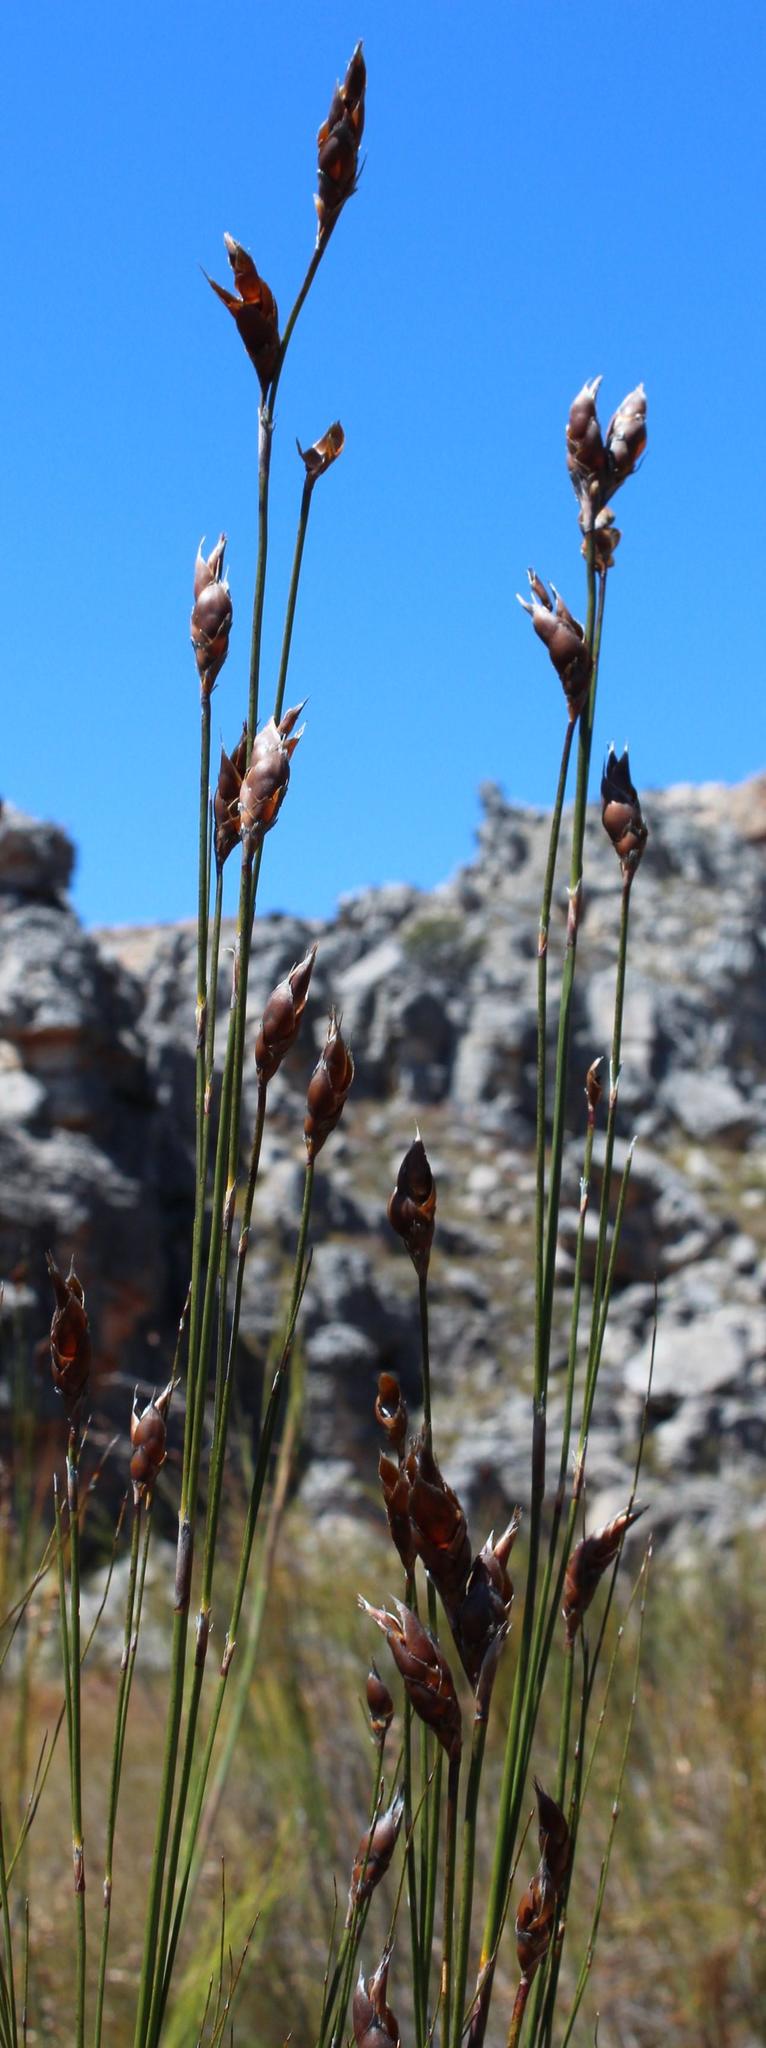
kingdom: Plantae
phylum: Tracheophyta
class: Liliopsida
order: Poales
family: Restionaceae
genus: Cannomois
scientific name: Cannomois robusta
